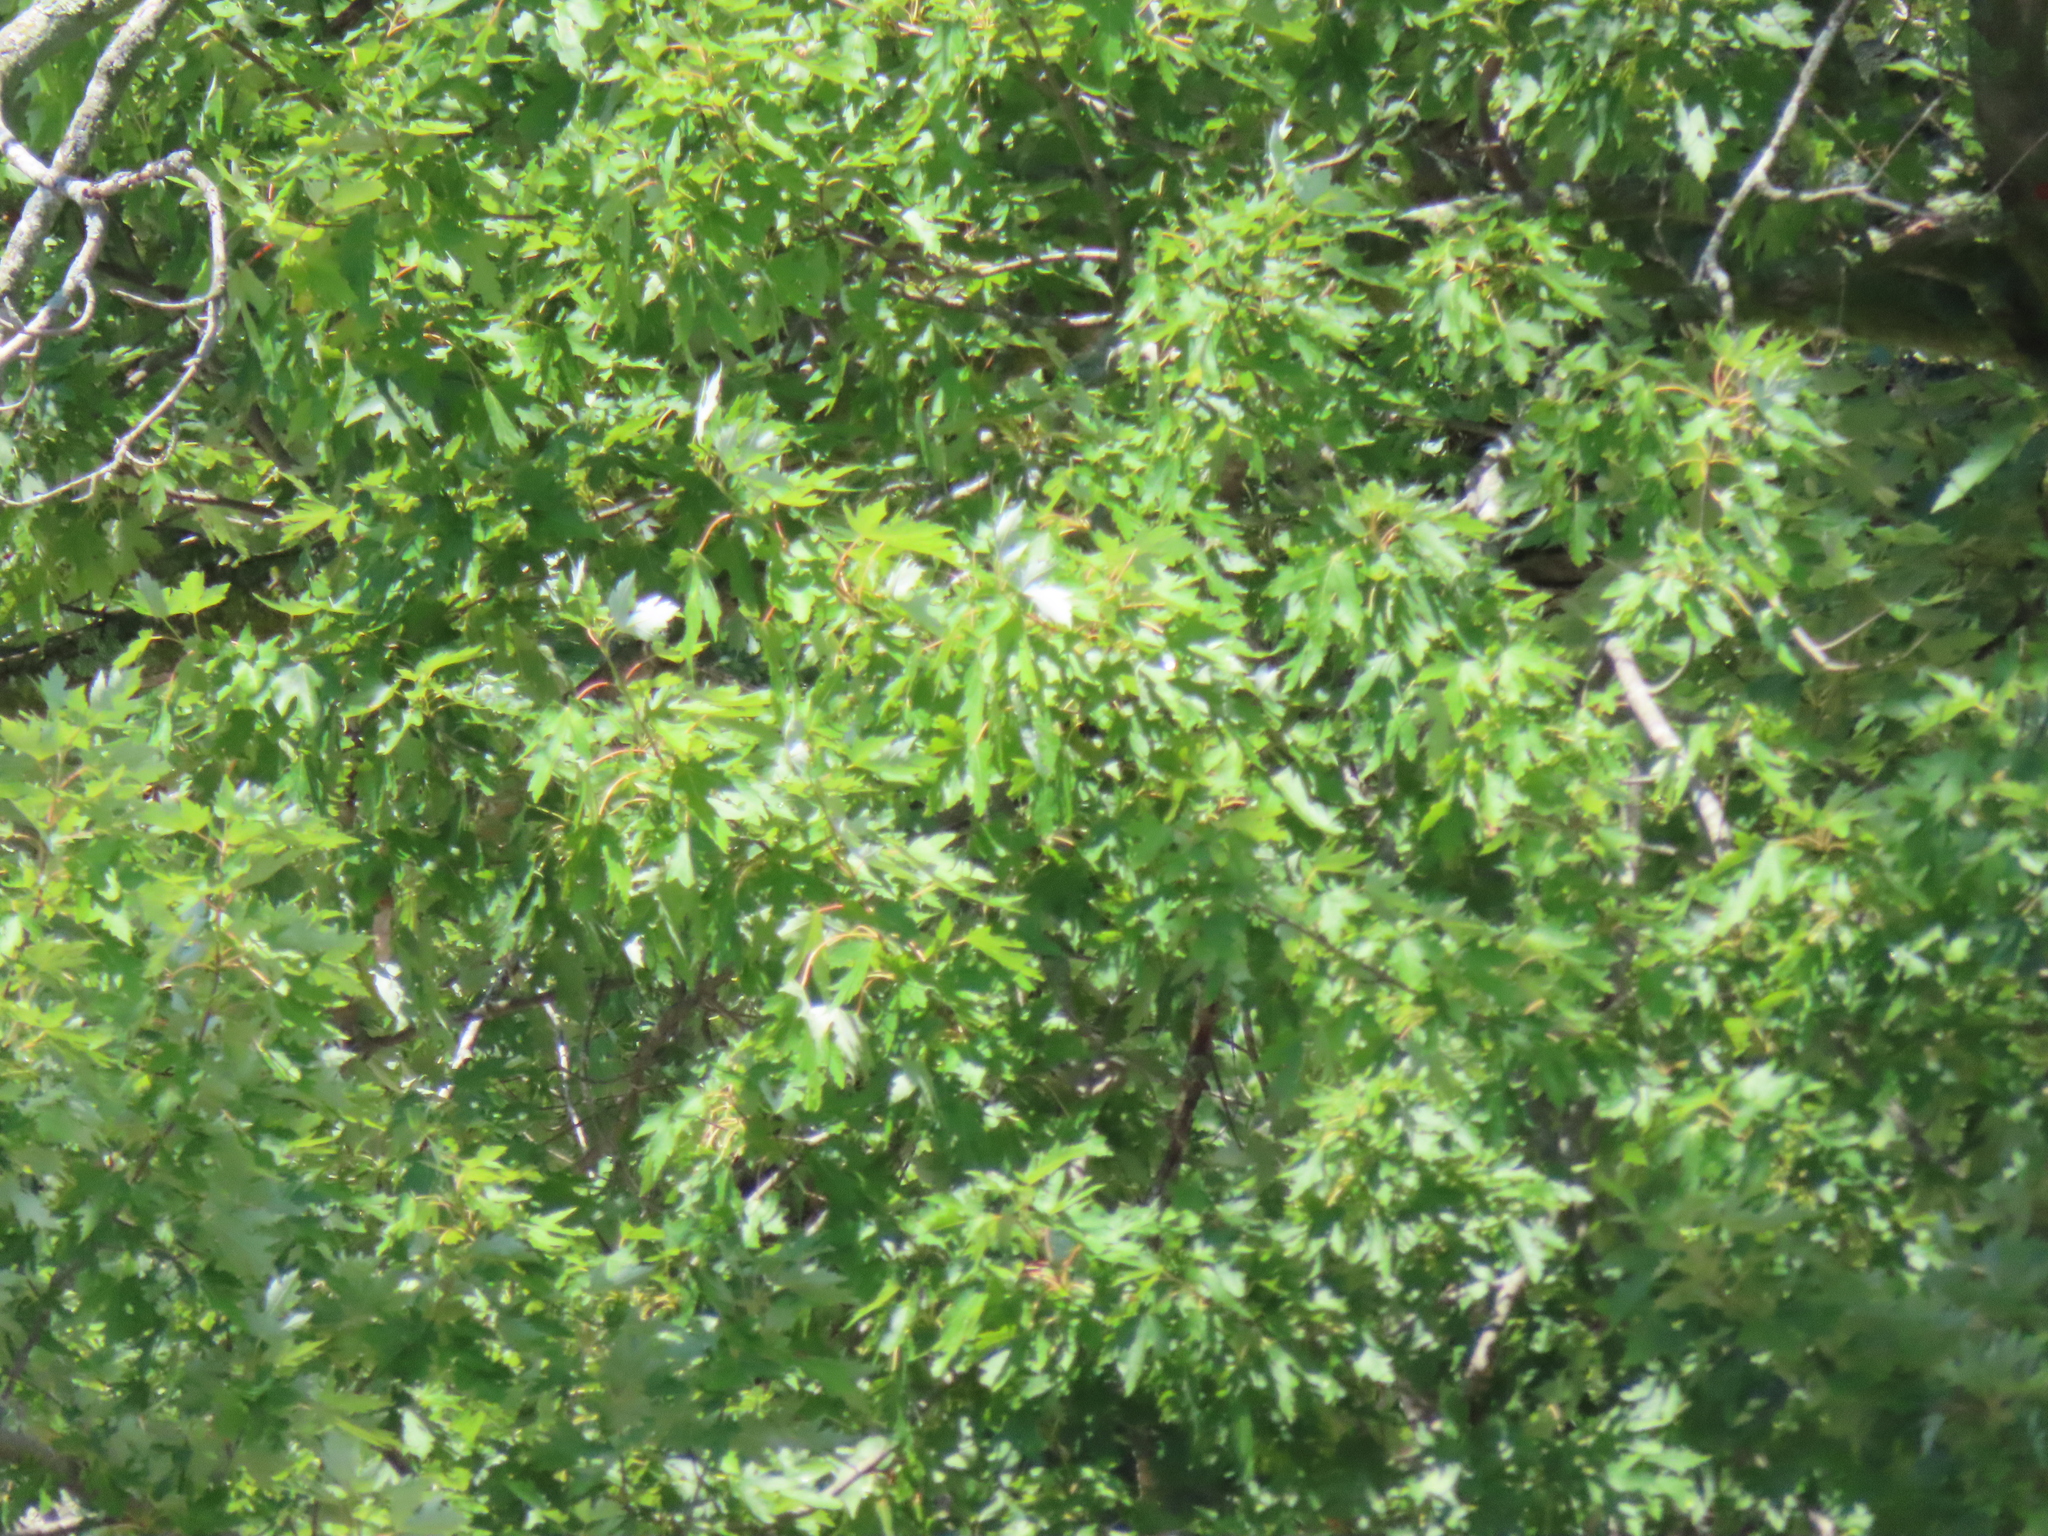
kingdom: Plantae
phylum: Tracheophyta
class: Magnoliopsida
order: Sapindales
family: Sapindaceae
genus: Acer
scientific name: Acer saccharinum
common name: Silver maple
